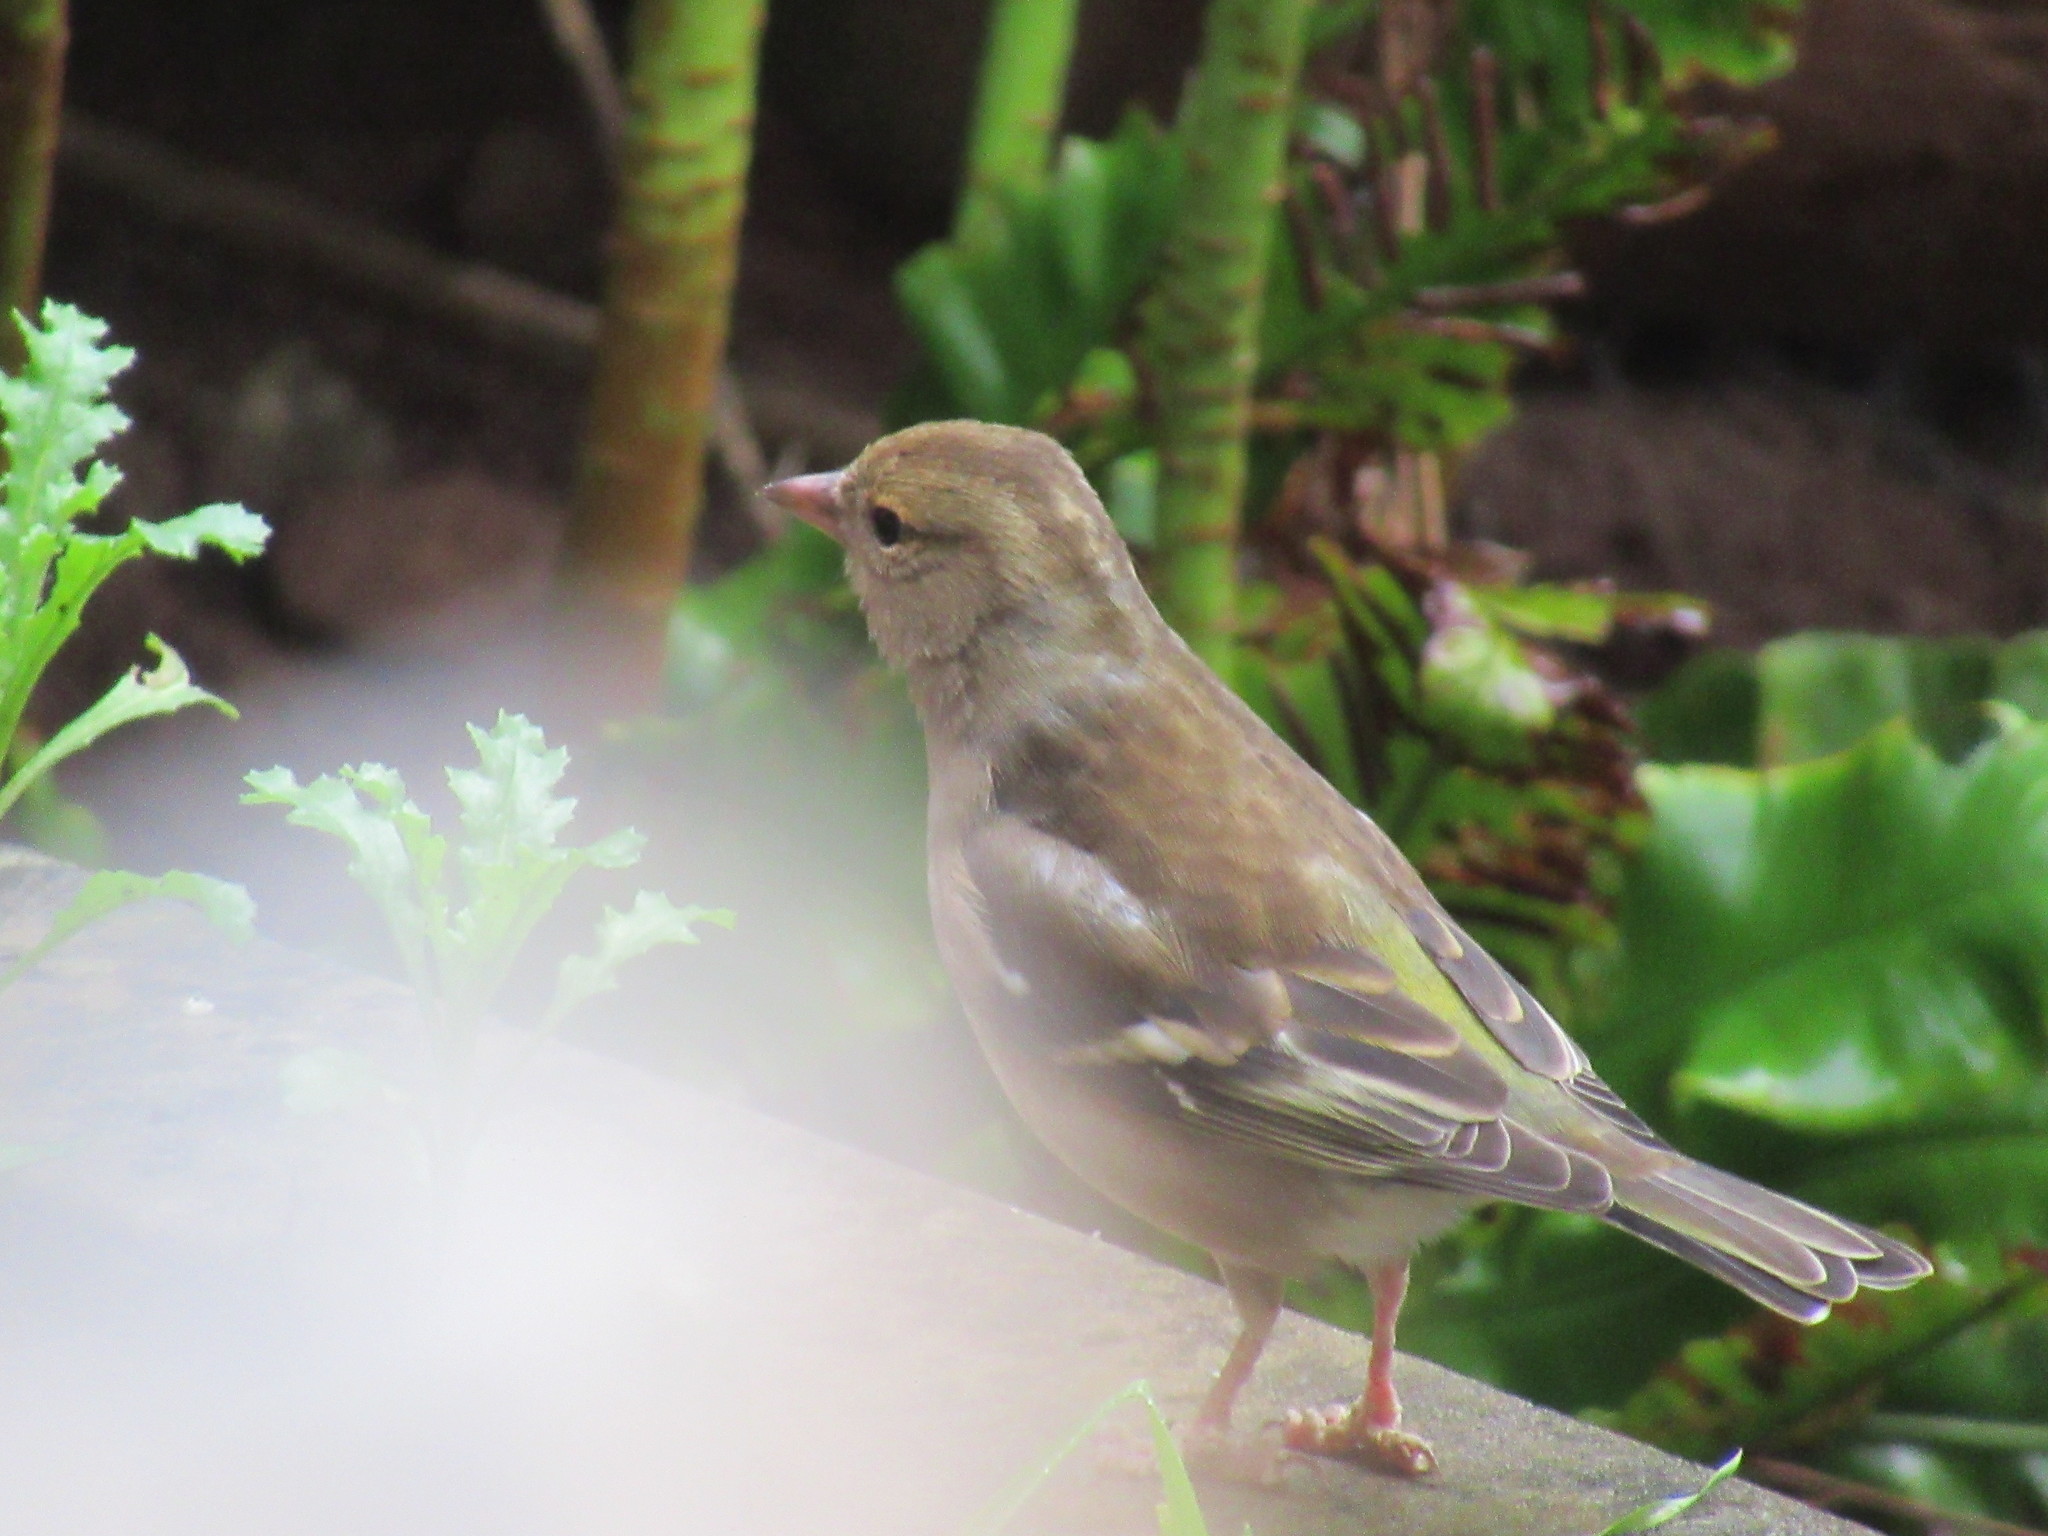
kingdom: Animalia
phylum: Chordata
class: Aves
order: Passeriformes
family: Fringillidae
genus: Fringilla
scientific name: Fringilla coelebs
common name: Common chaffinch
